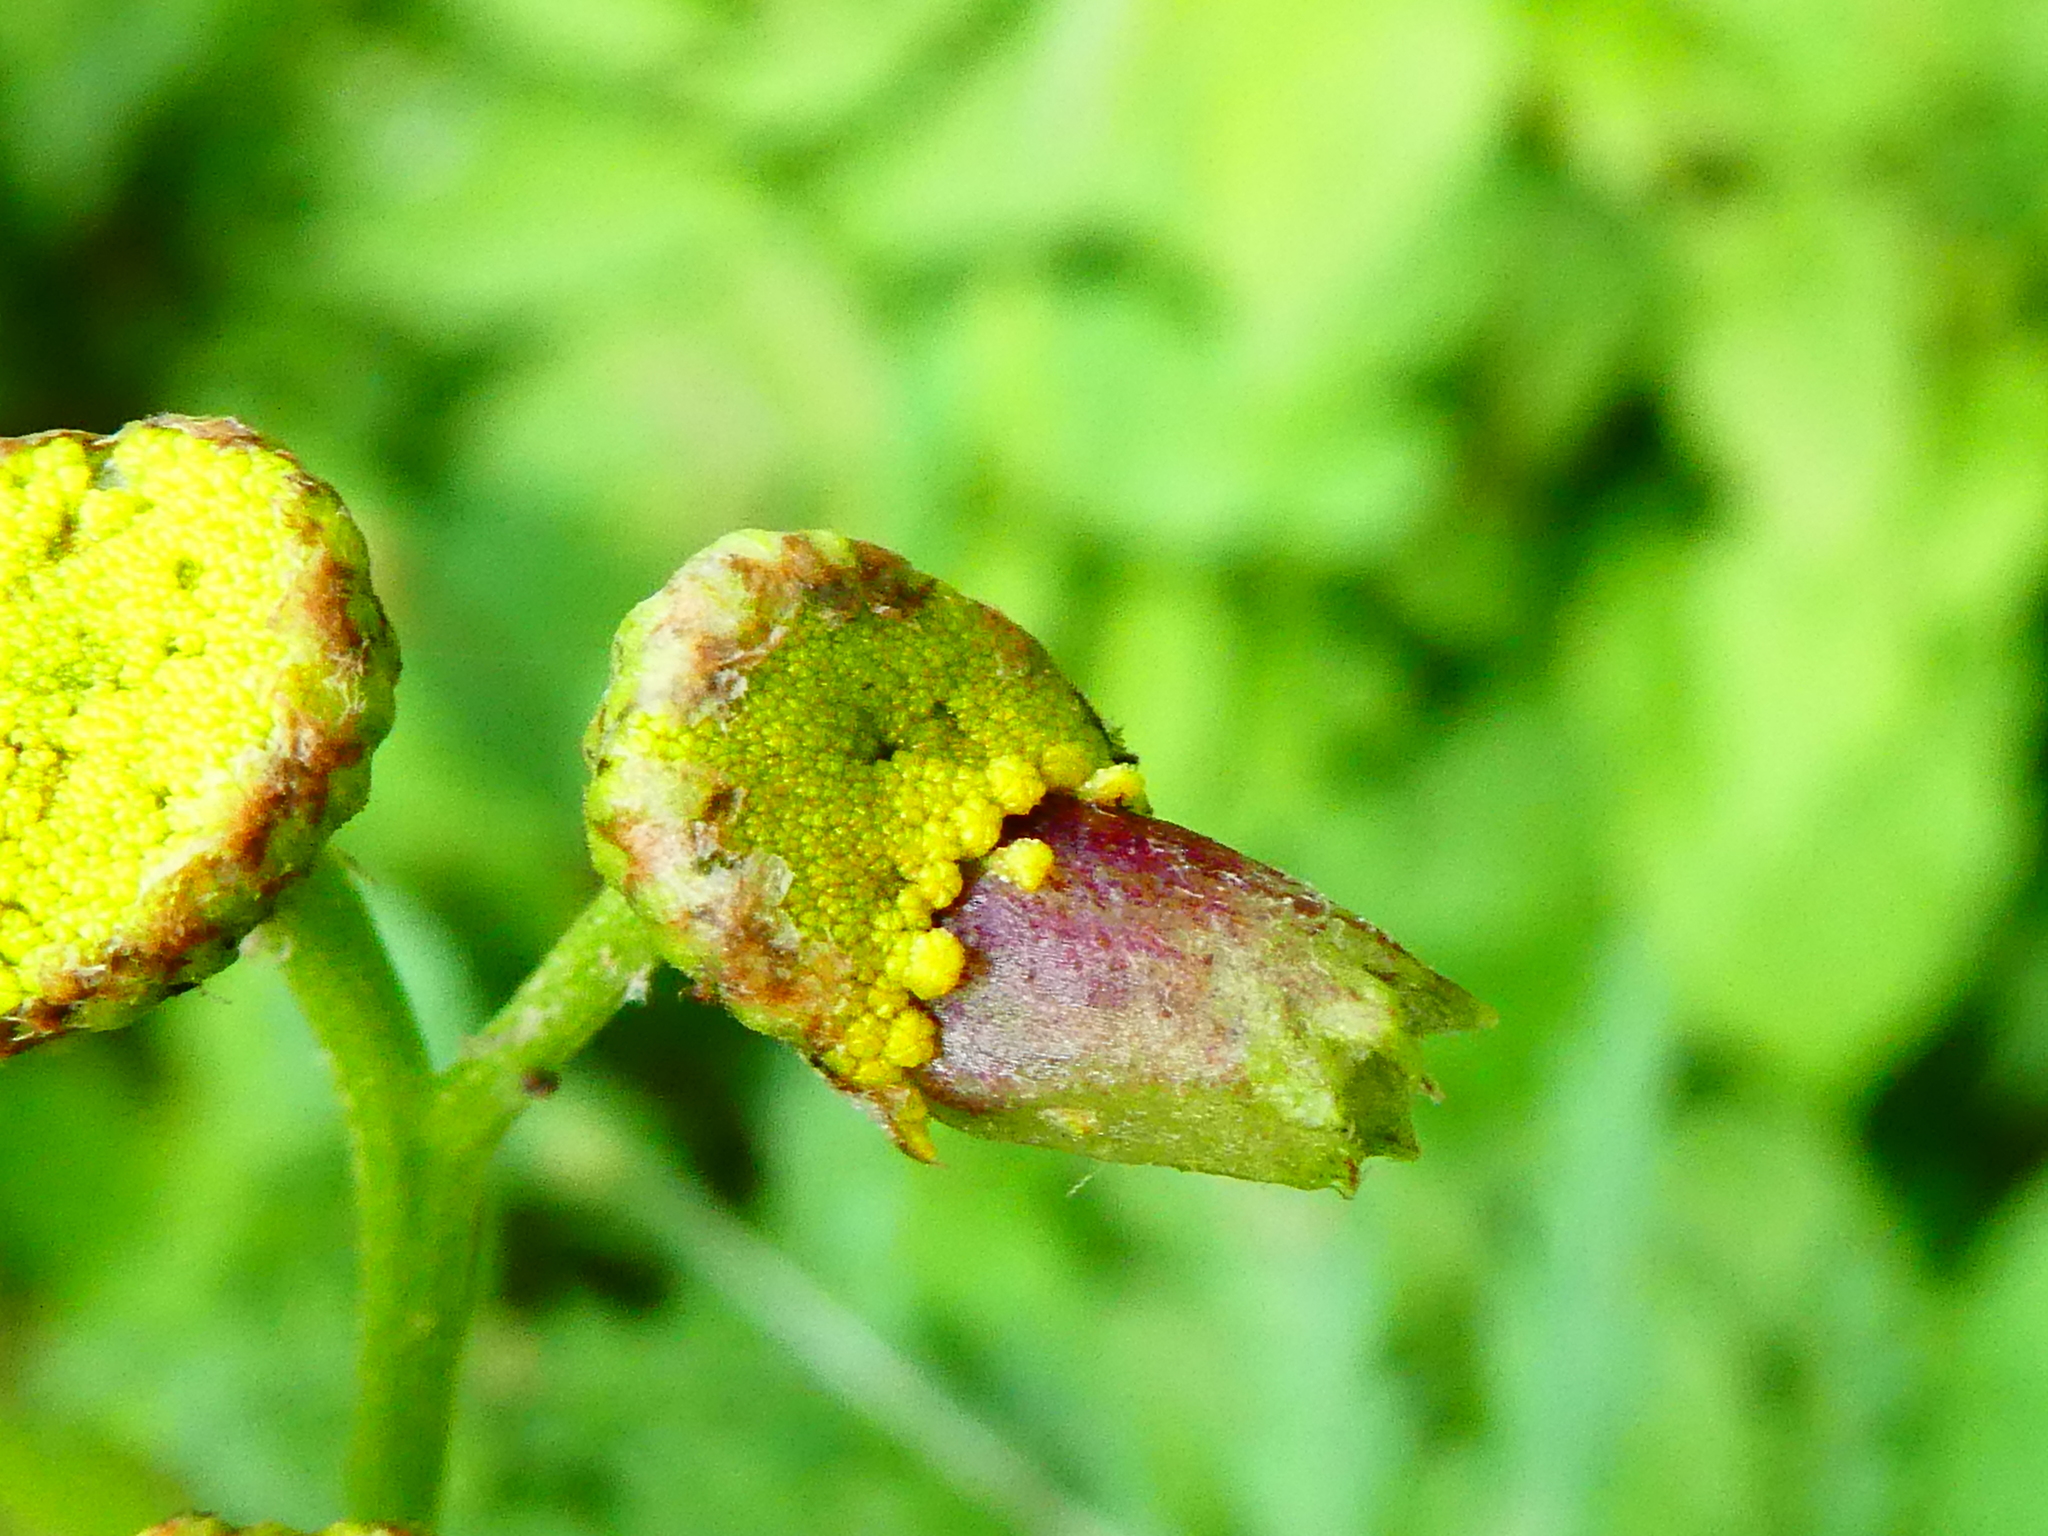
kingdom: Animalia
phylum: Arthropoda
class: Insecta
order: Diptera
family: Cecidomyiidae
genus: Rhopalomyia
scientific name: Rhopalomyia tanaceticolus
